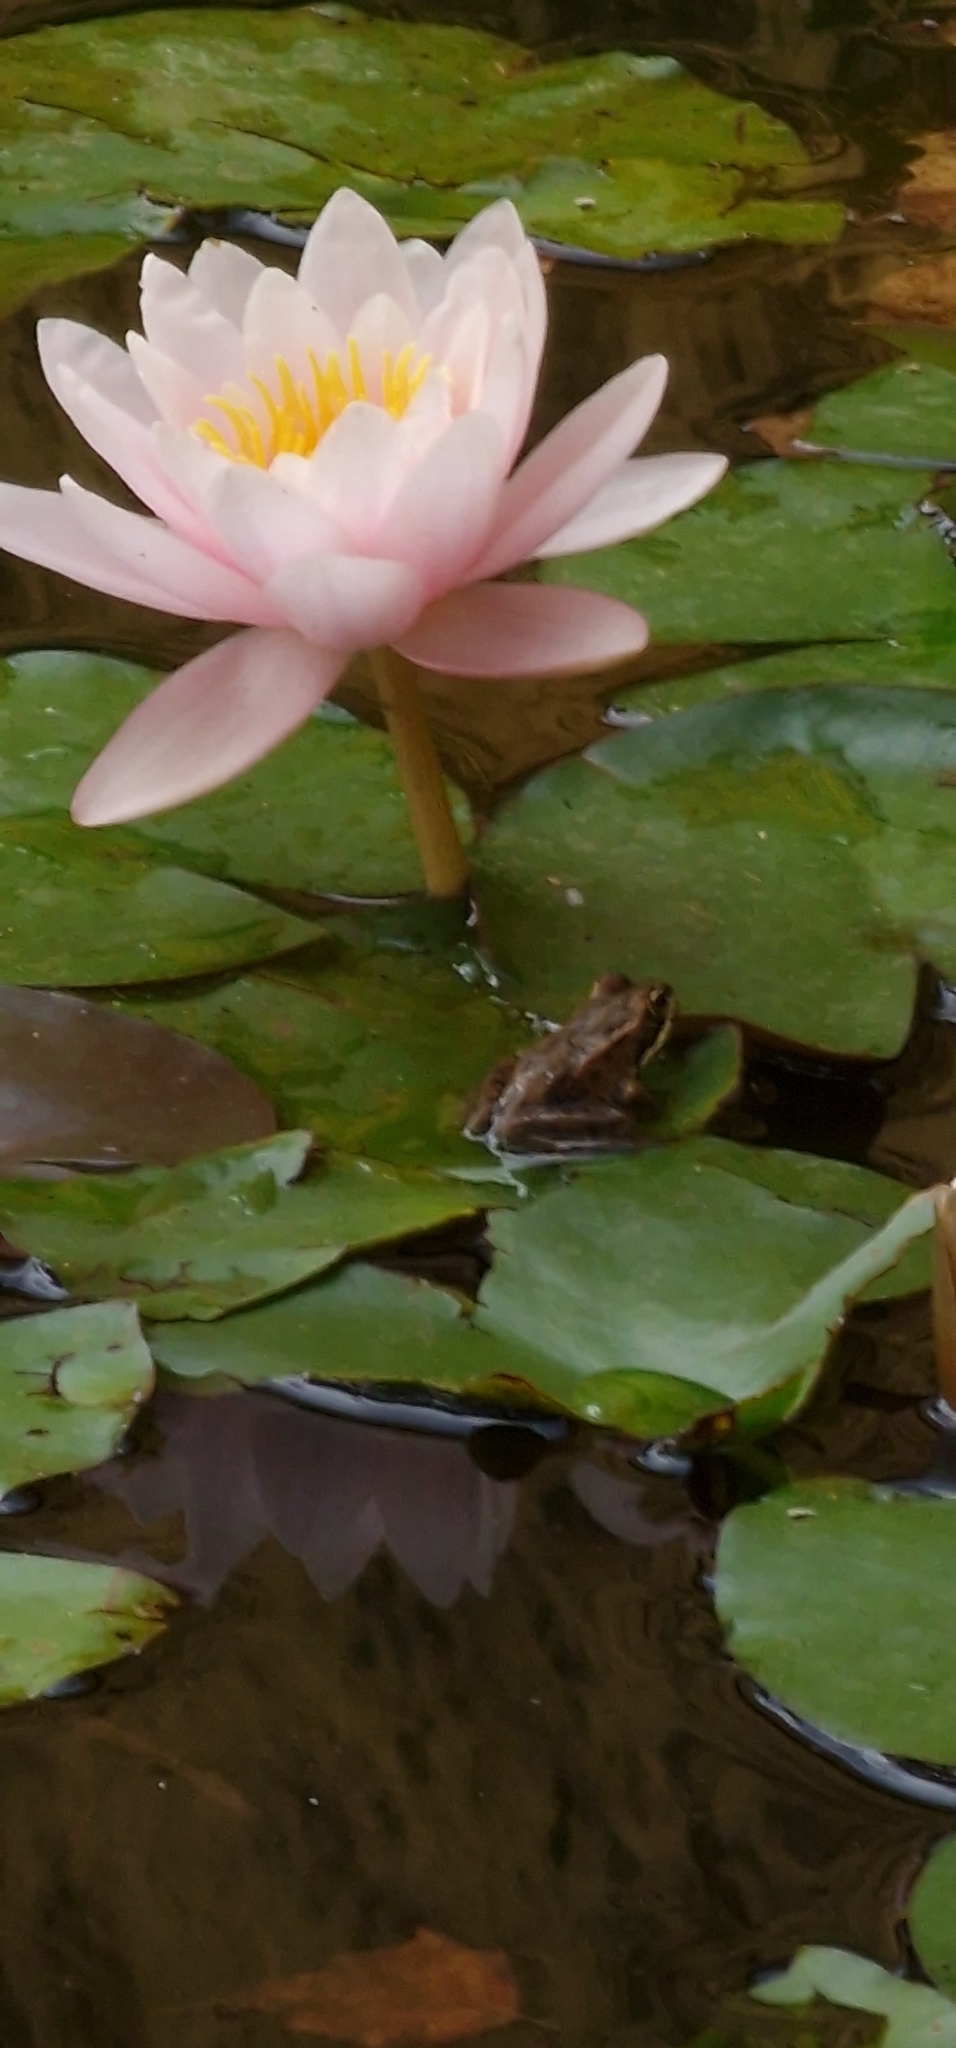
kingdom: Animalia
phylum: Chordata
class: Amphibia
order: Anura
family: Ranidae
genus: Pelophylax
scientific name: Pelophylax perezi
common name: Perez's frog
